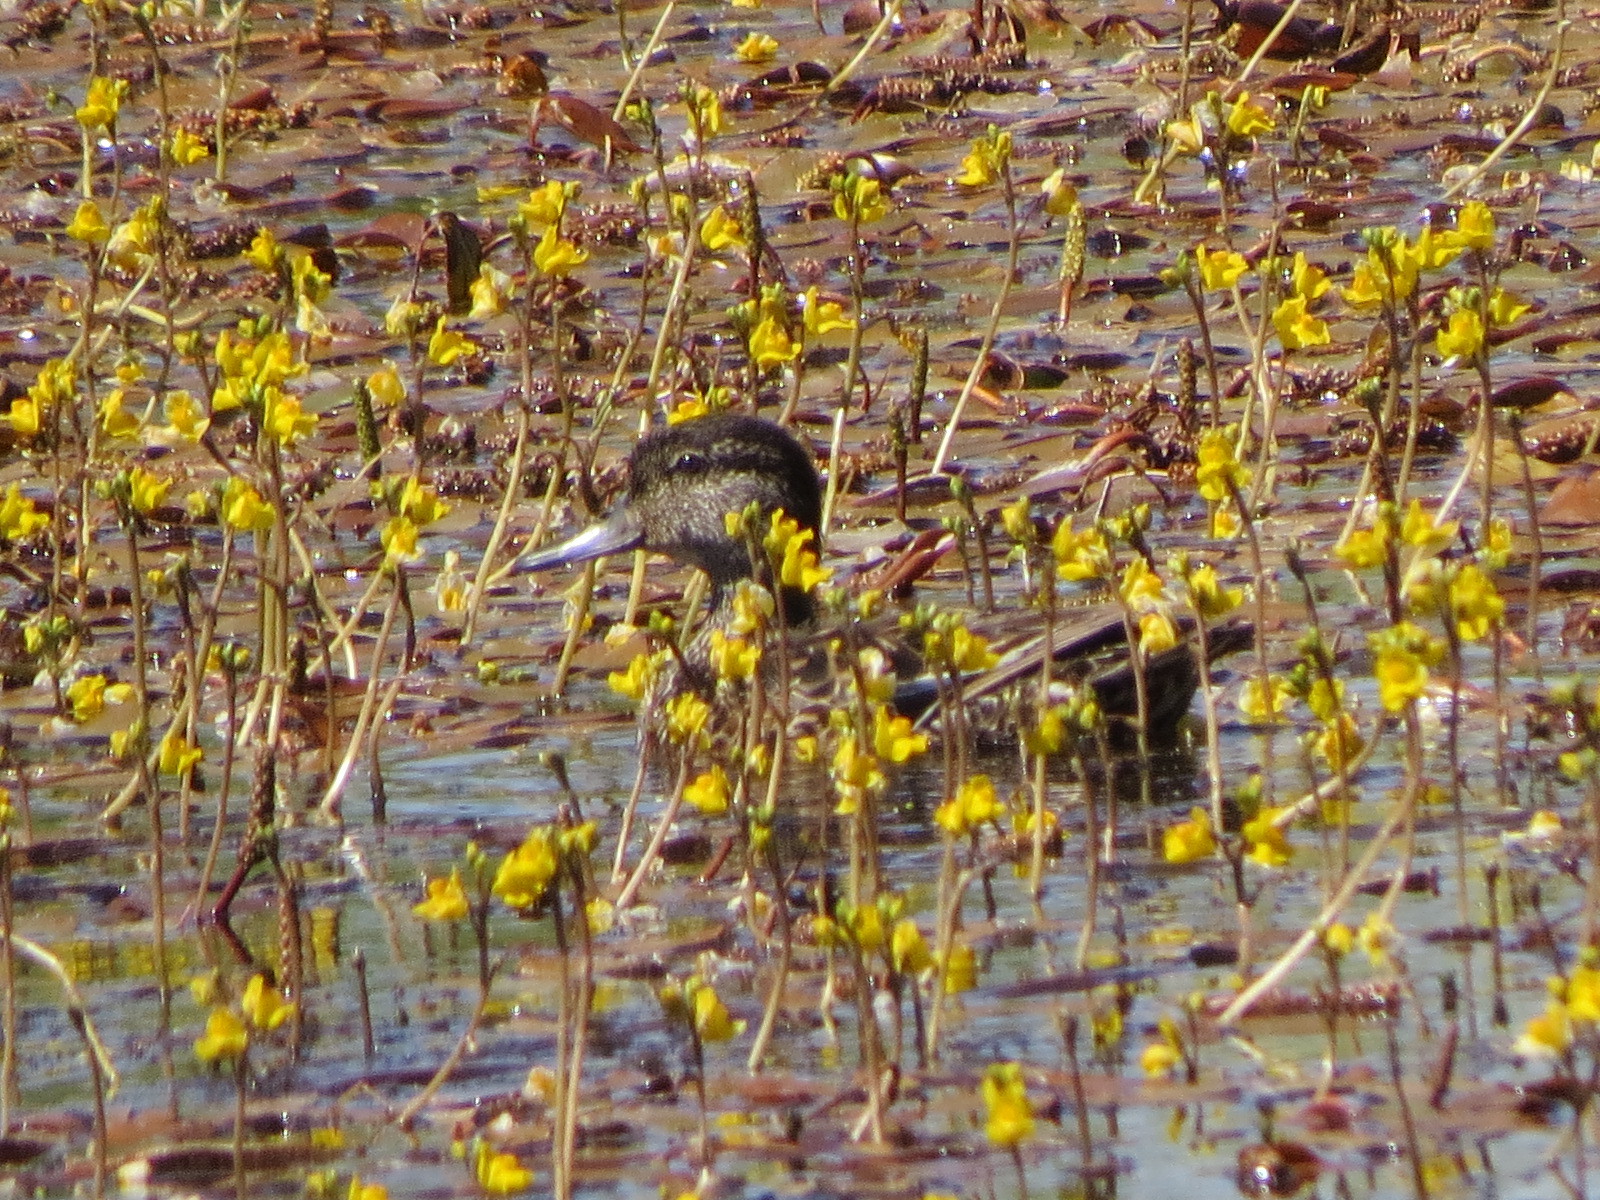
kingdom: Animalia
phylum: Chordata
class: Aves
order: Anseriformes
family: Anatidae
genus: Anas
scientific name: Anas crecca
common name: Eurasian teal
